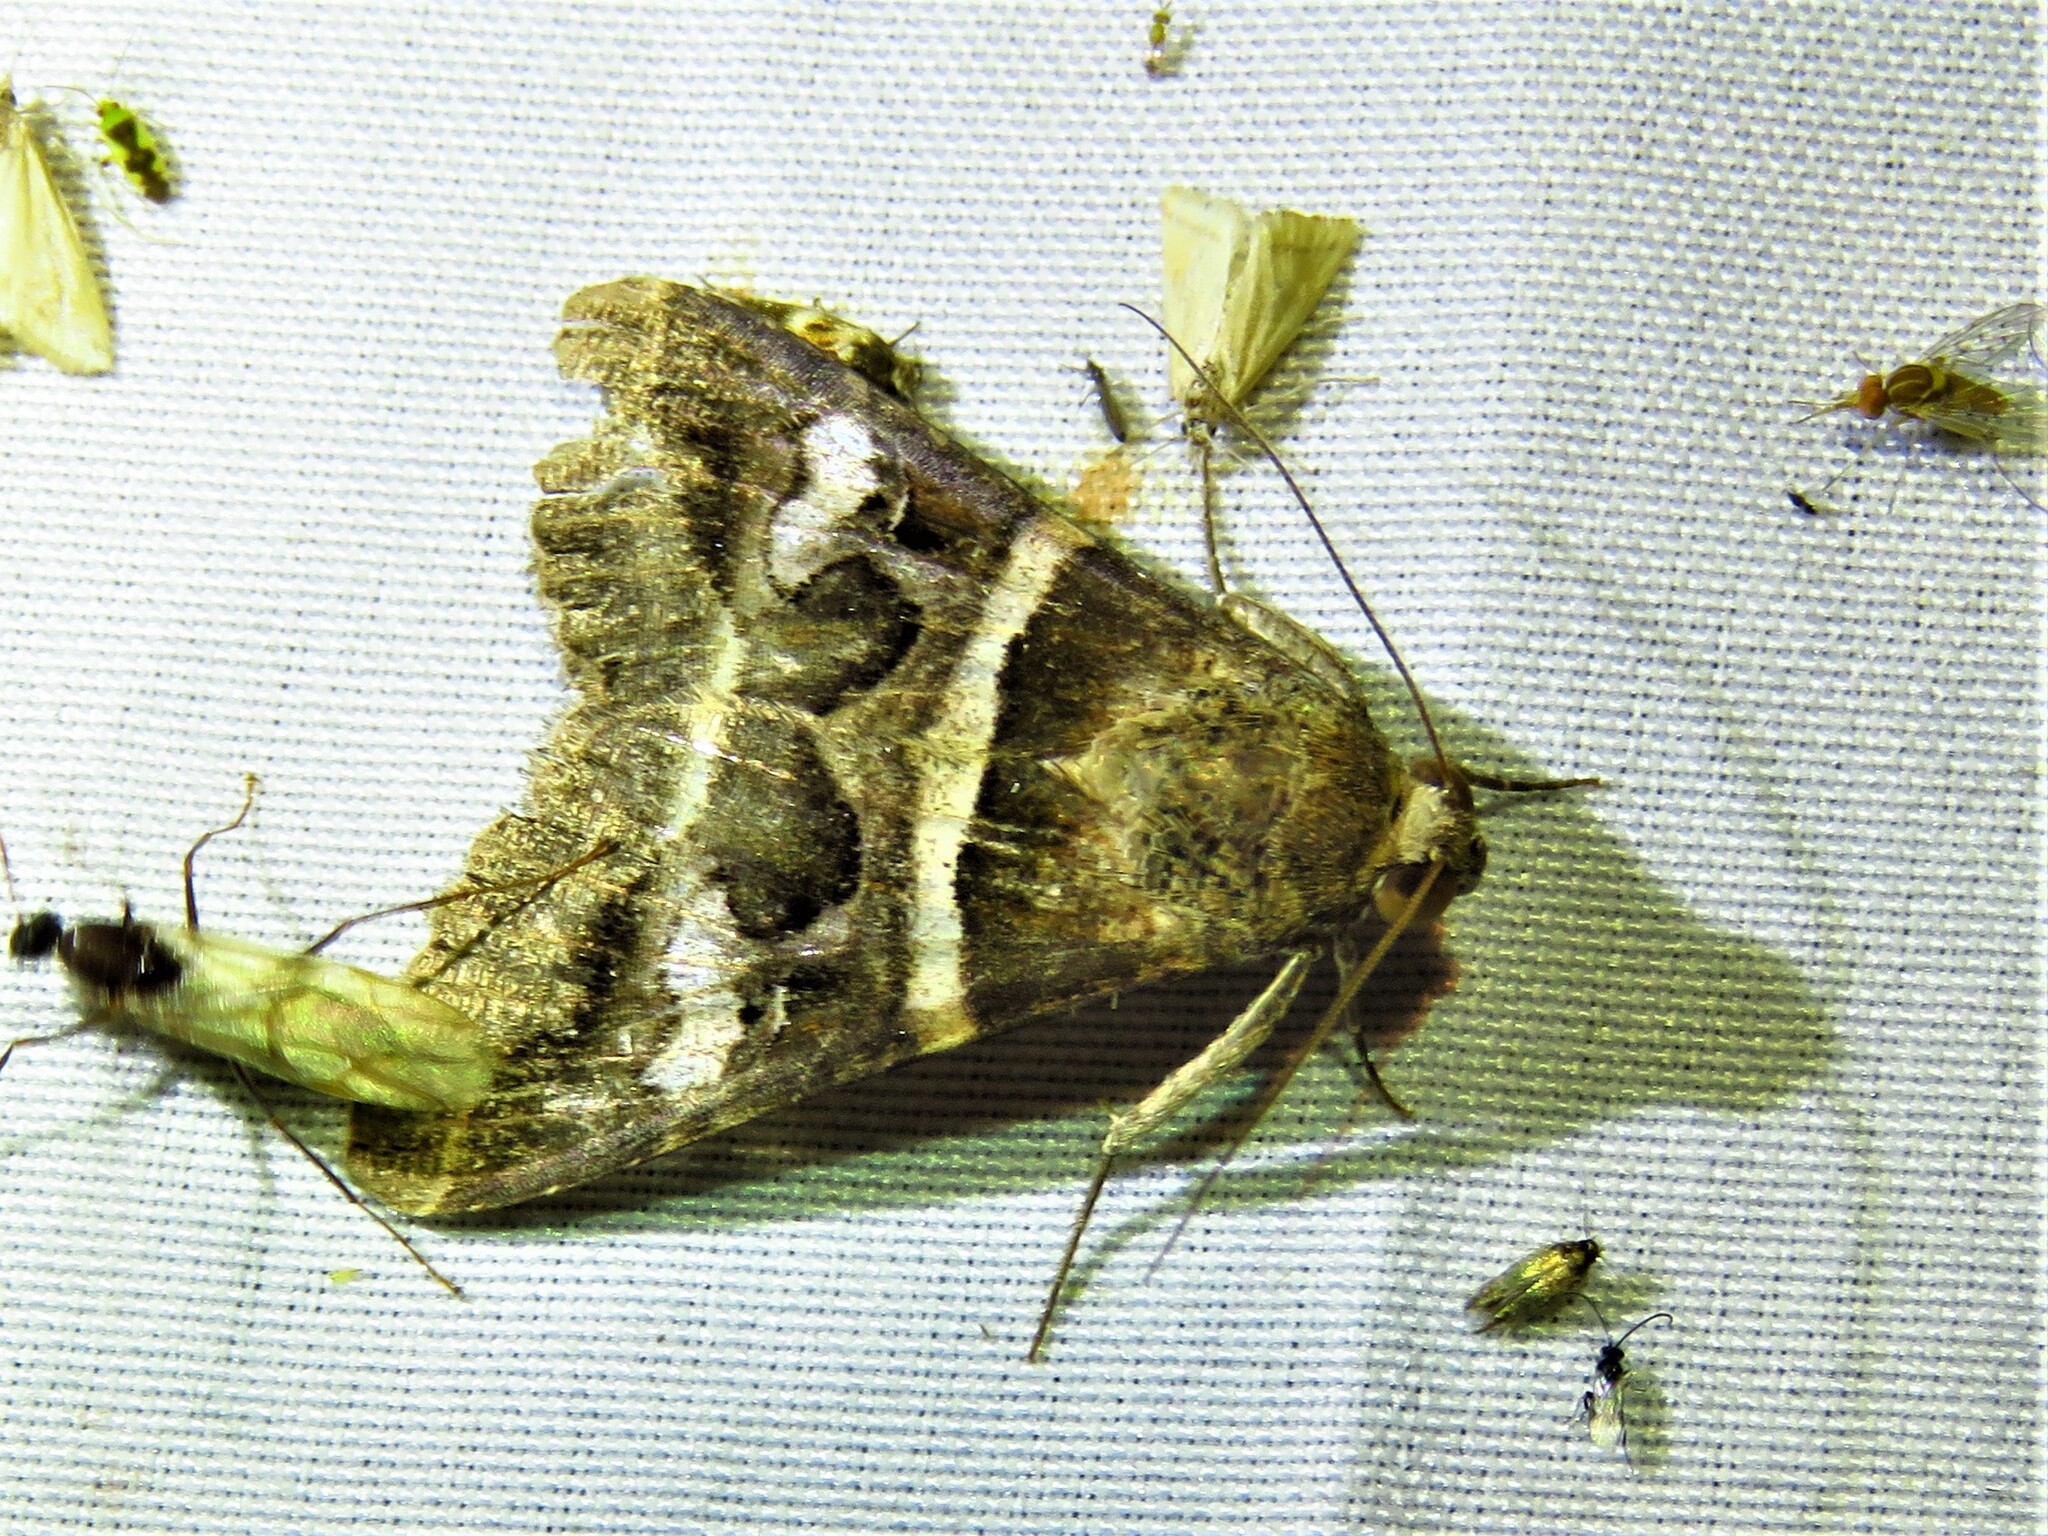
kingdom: Animalia
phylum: Arthropoda
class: Insecta
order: Lepidoptera
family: Erebidae
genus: Melipotis
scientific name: Melipotis perpendicularis
